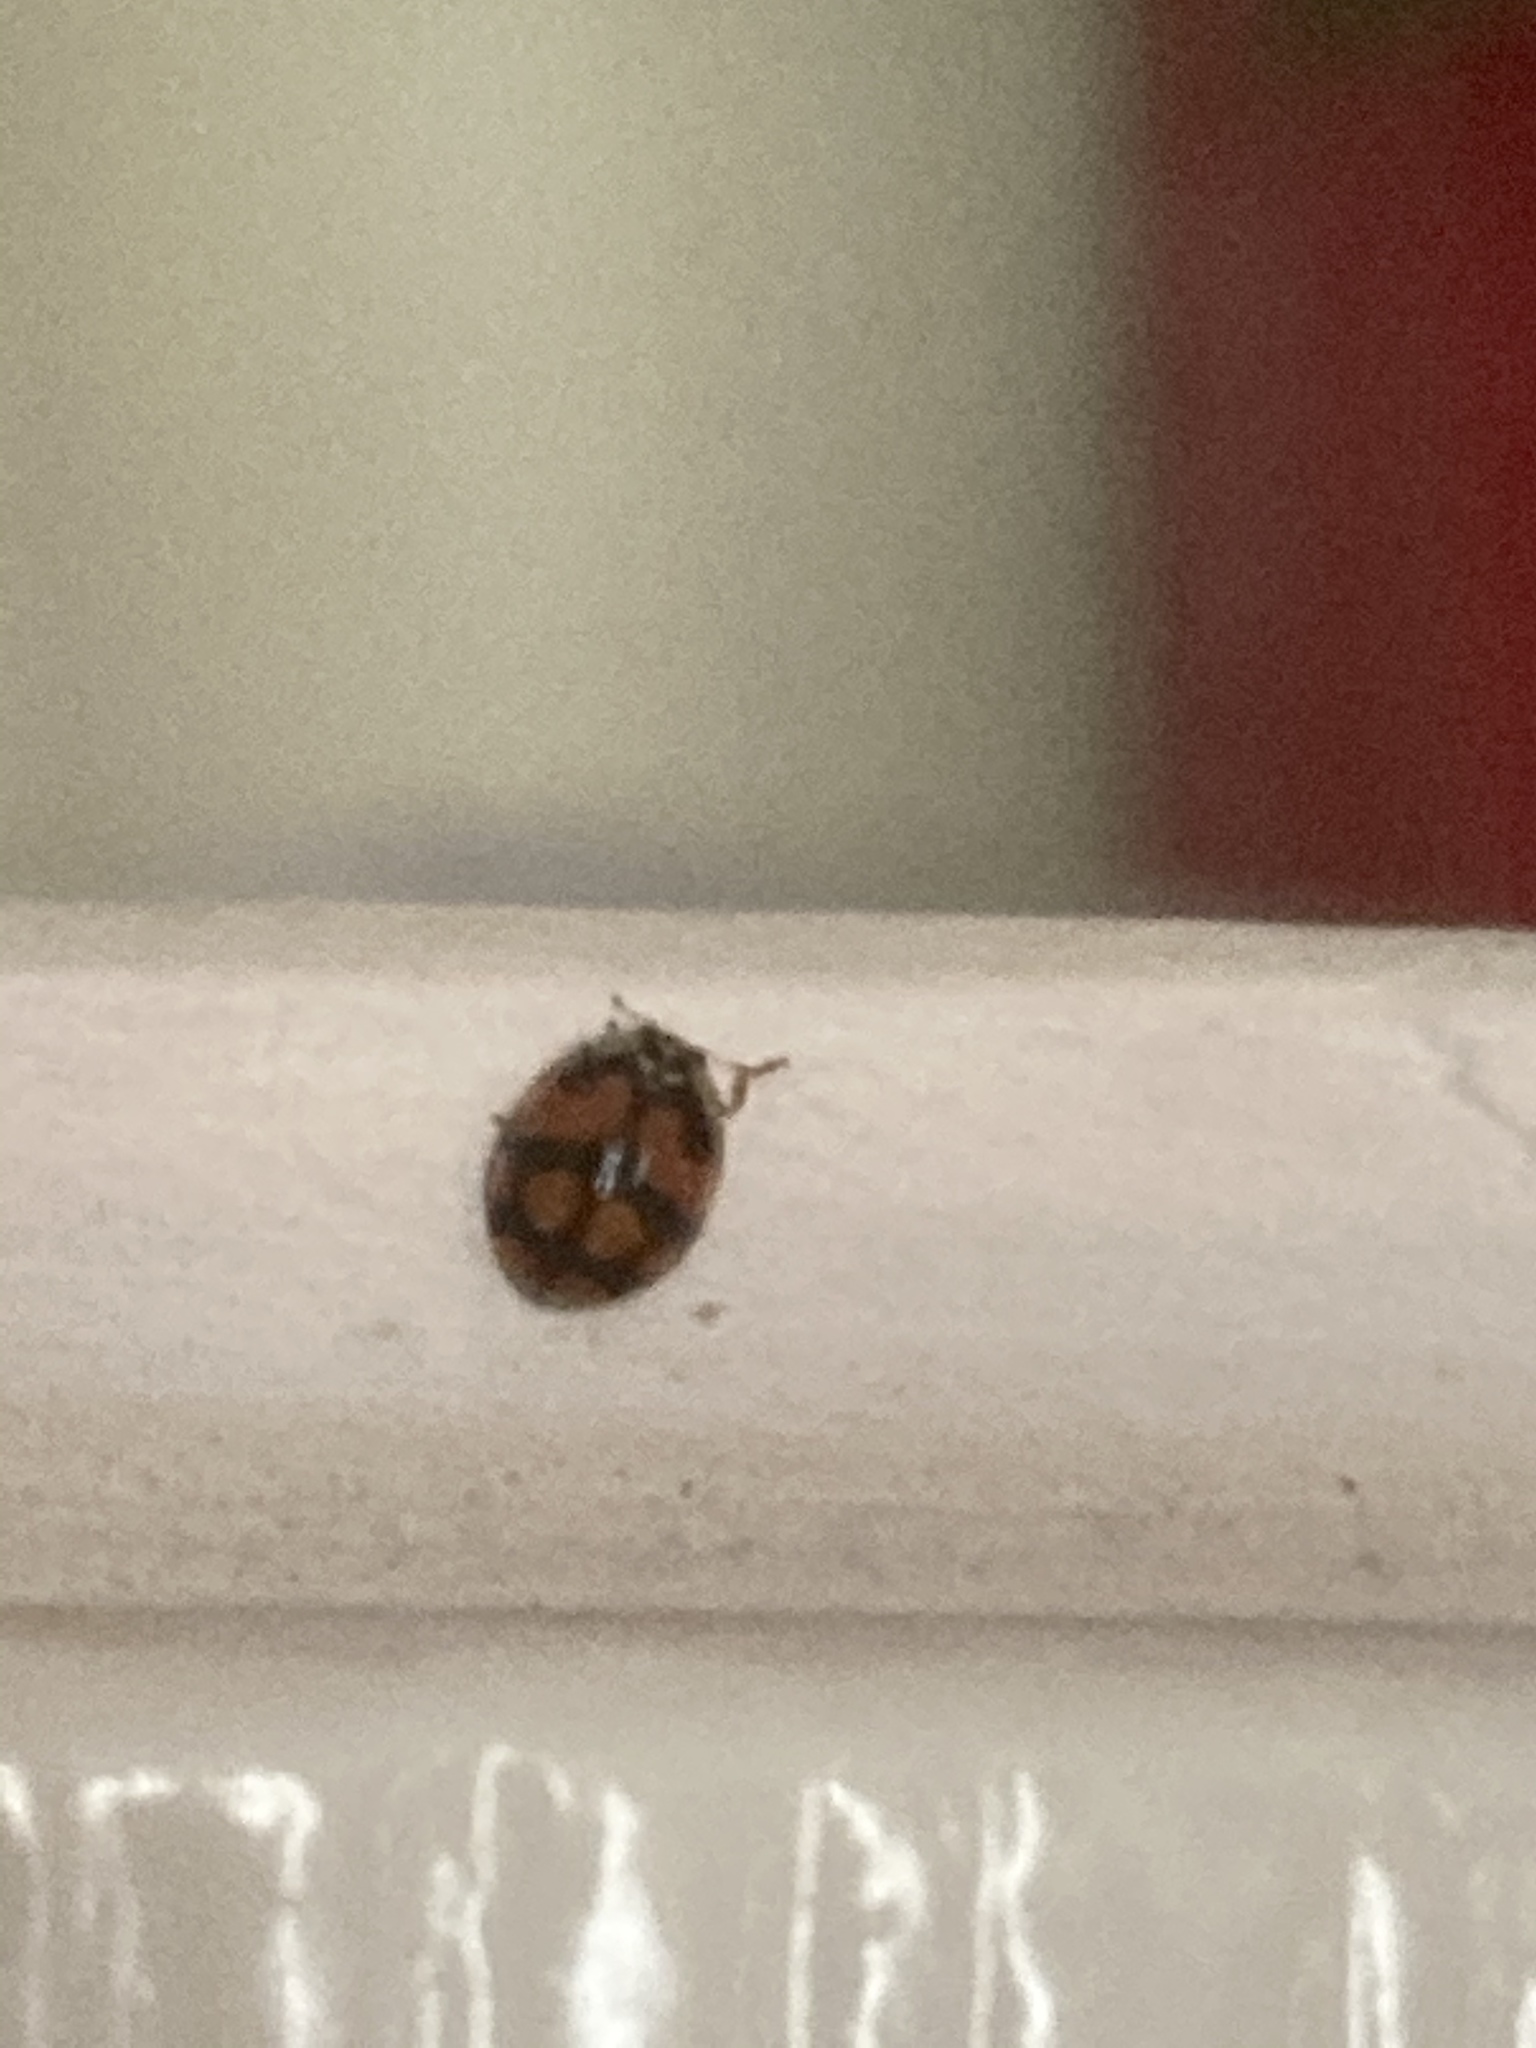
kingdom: Animalia
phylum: Arthropoda
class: Insecta
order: Coleoptera
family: Coccinellidae
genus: Adalia
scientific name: Adalia decempunctata
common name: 10-spot ladybird
